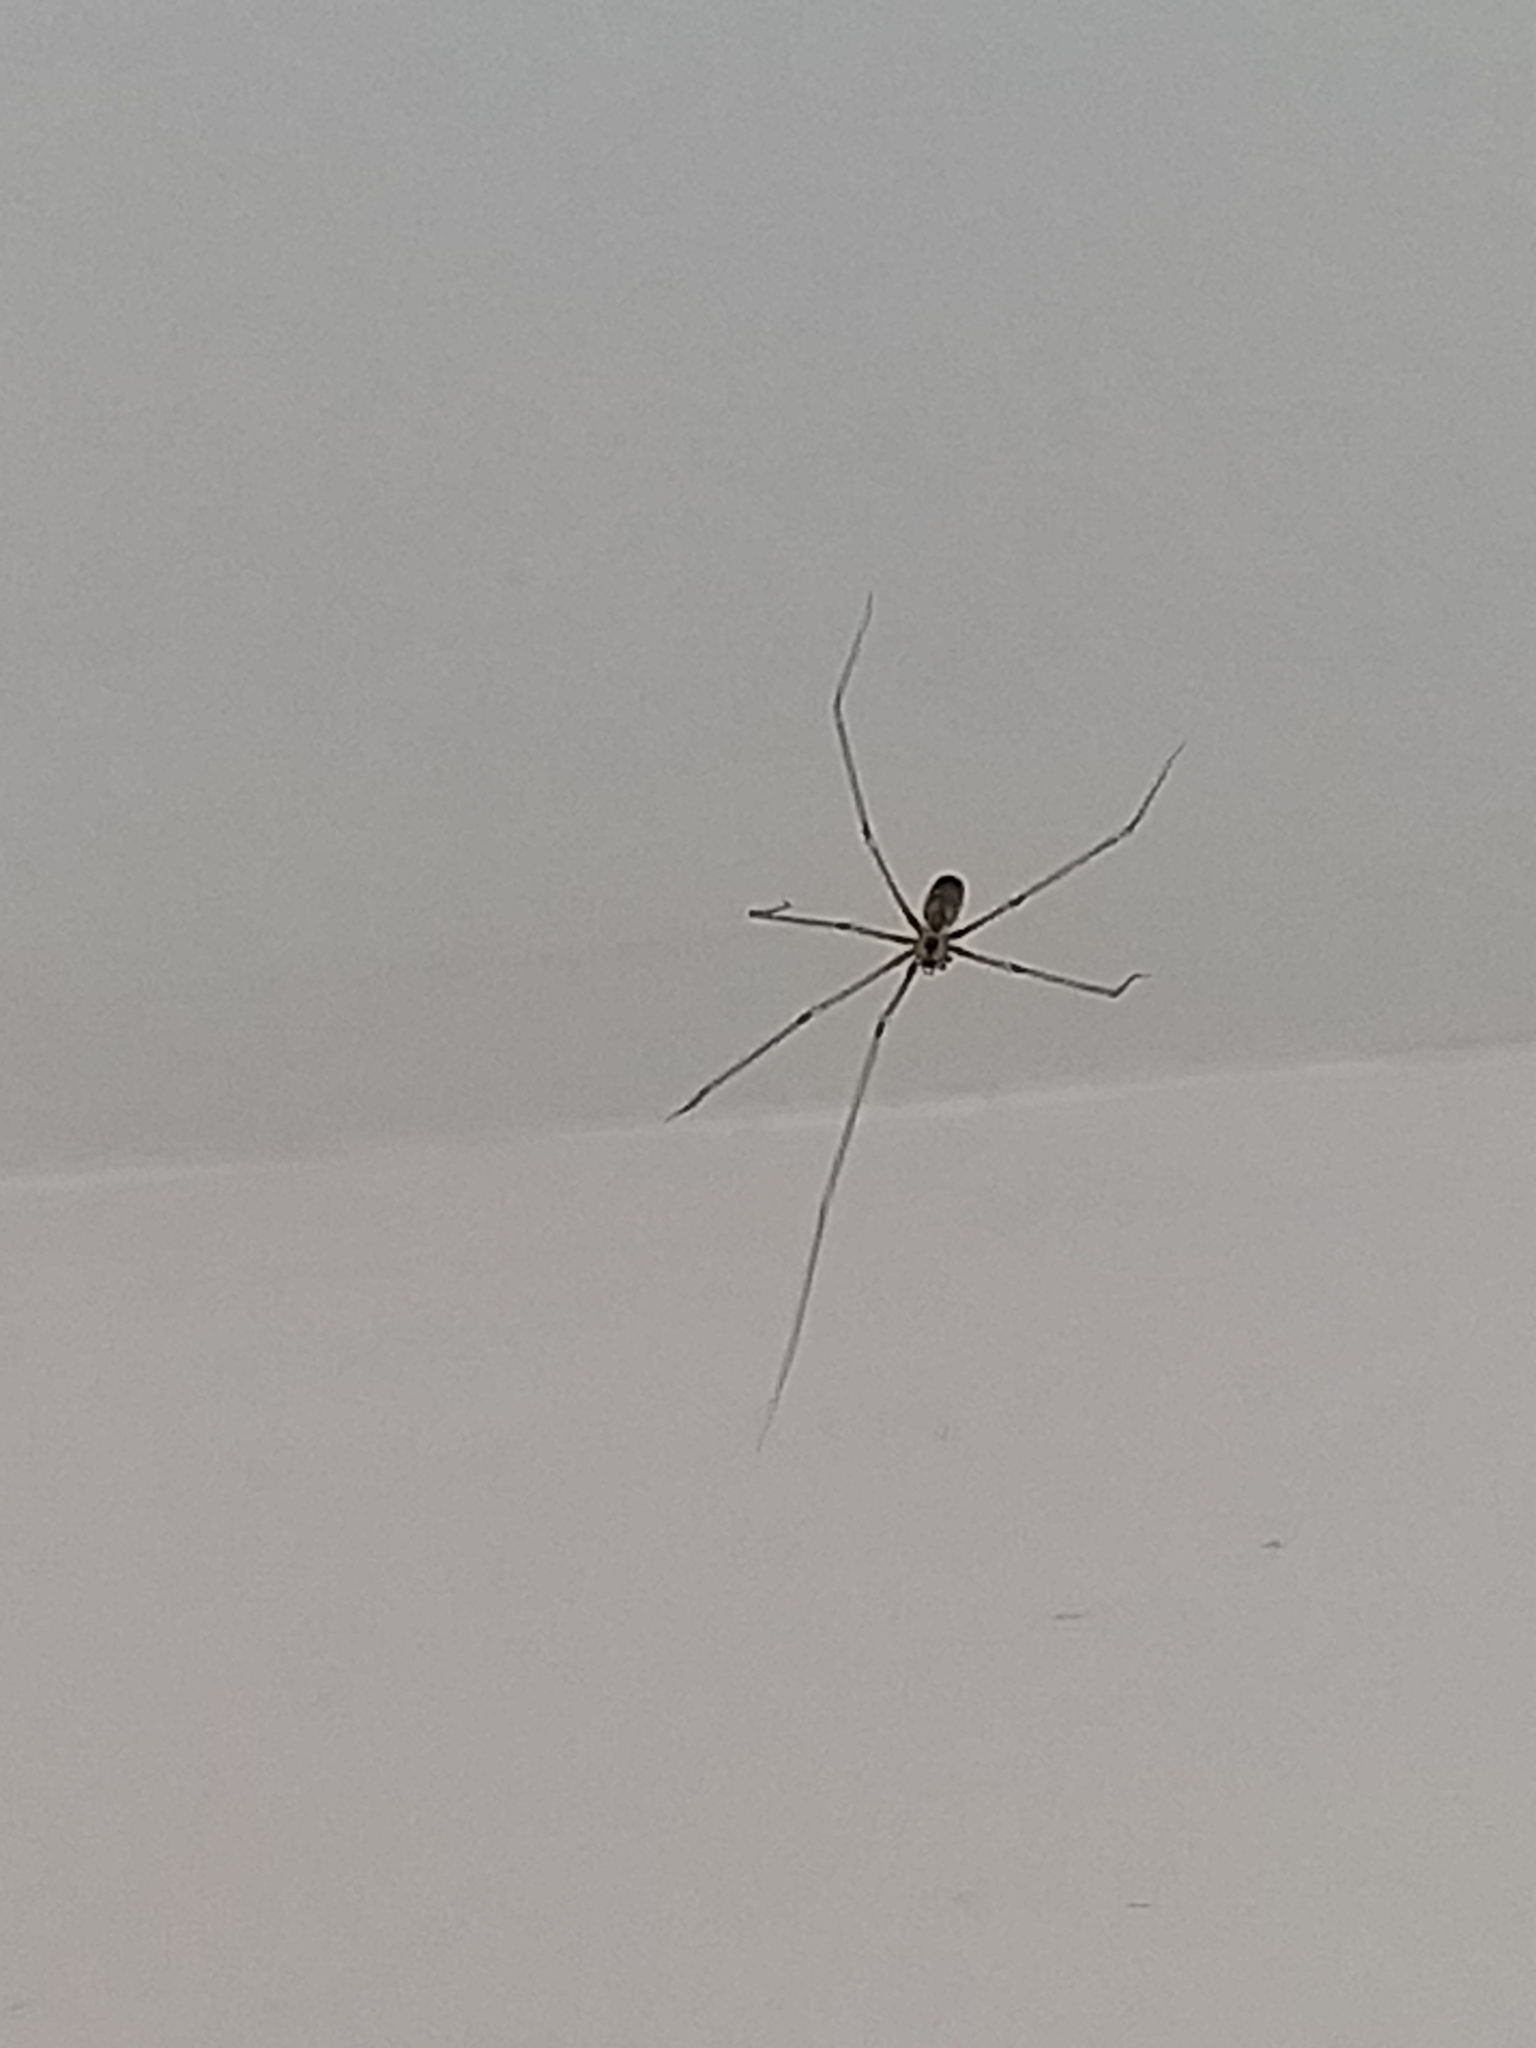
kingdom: Animalia
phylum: Arthropoda
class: Arachnida
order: Araneae
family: Pholcidae
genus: Pholcus
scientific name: Pholcus phalangioides
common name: Longbodied cellar spider
